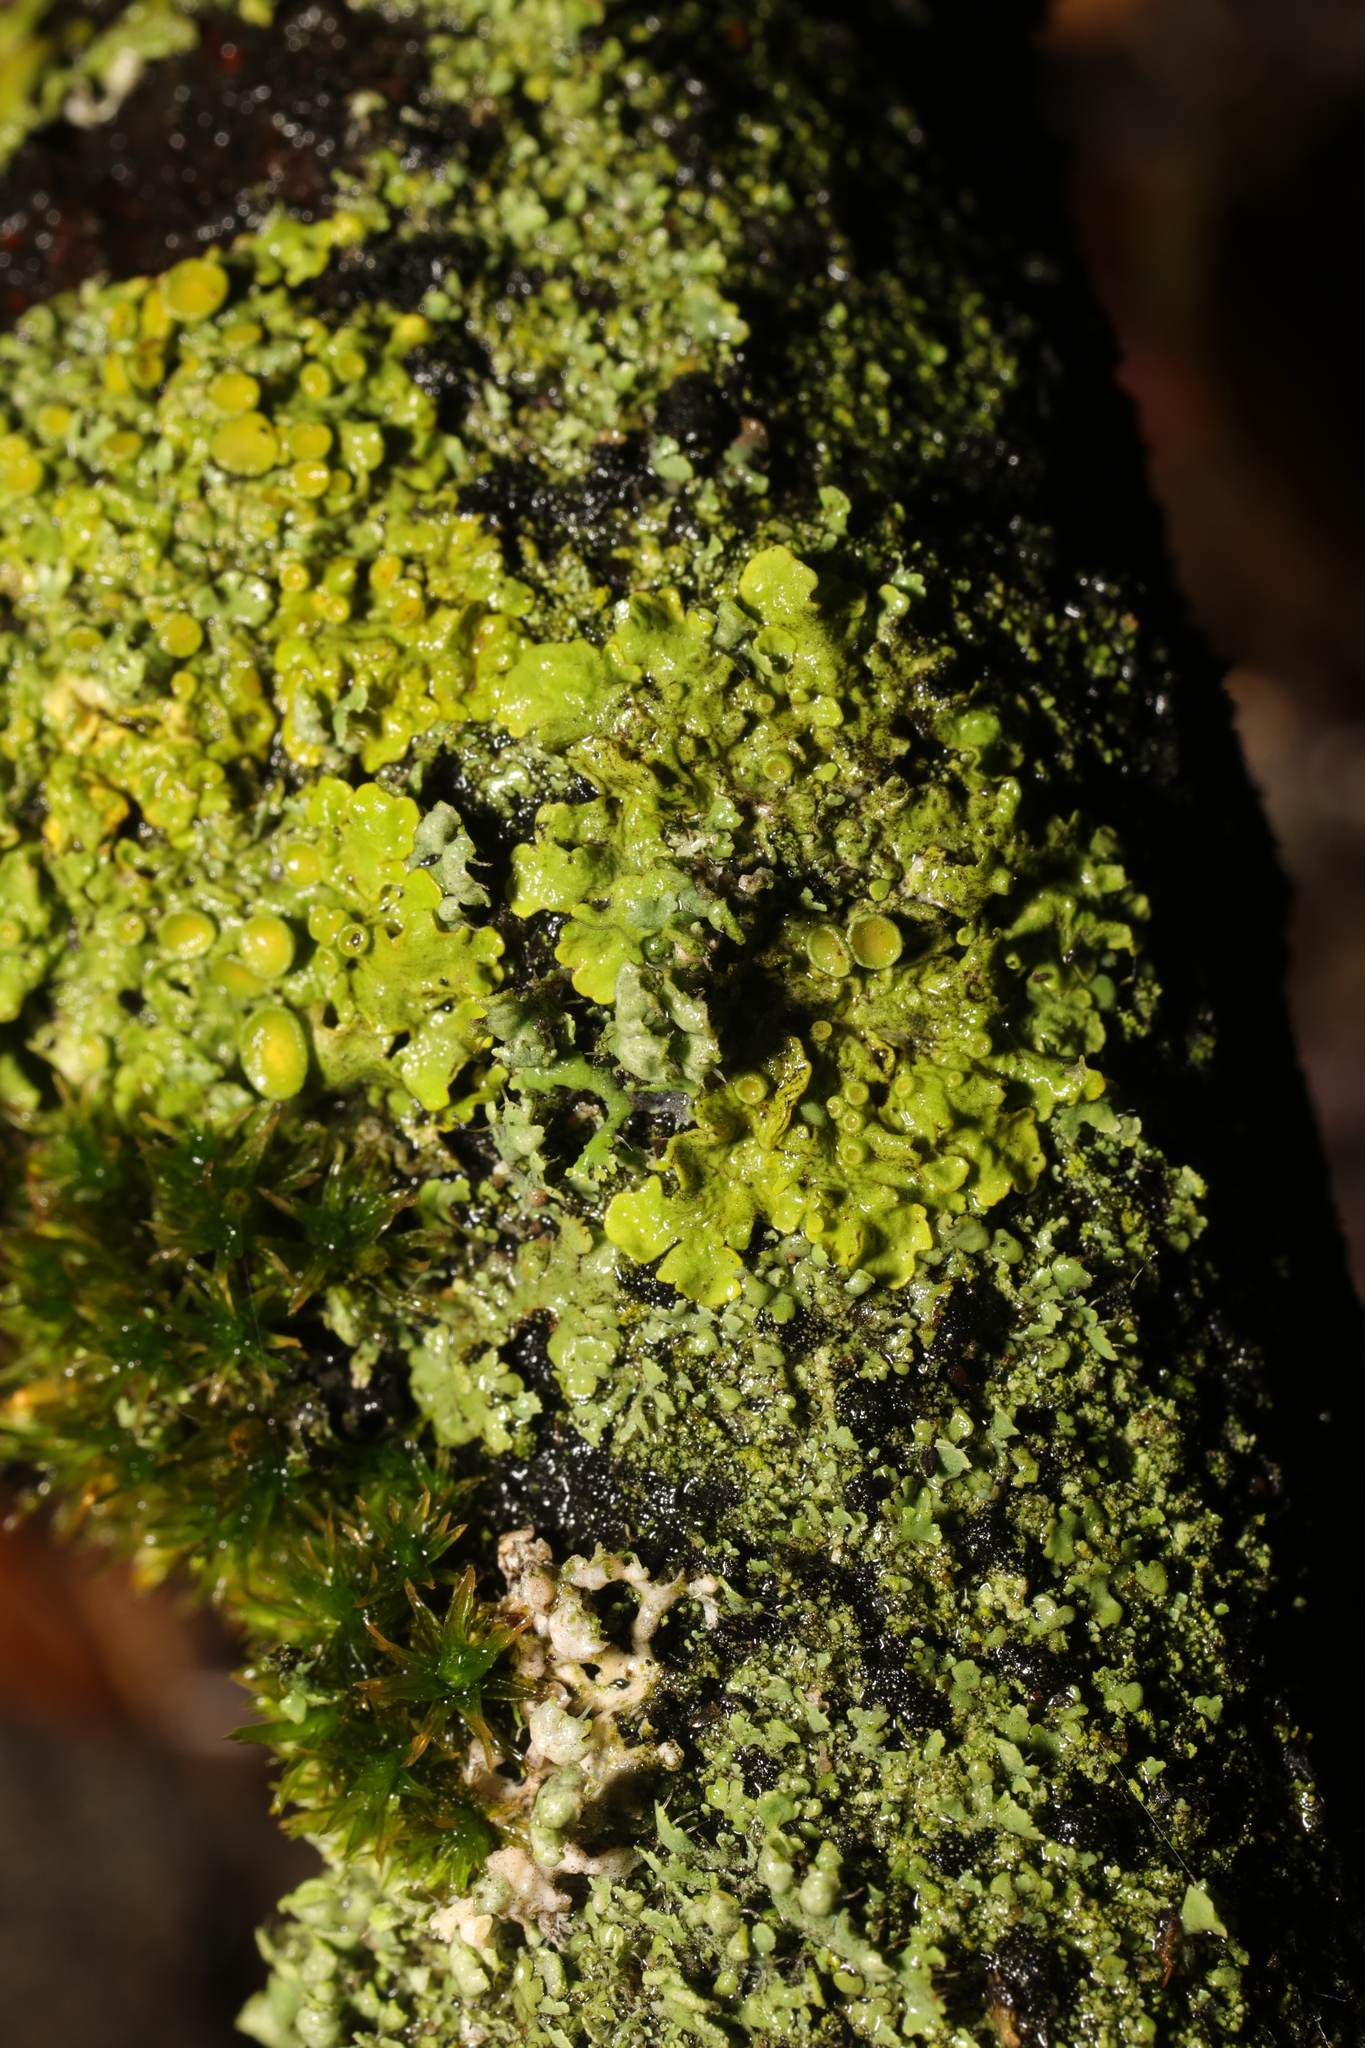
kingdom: Fungi
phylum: Ascomycota
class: Lecanoromycetes
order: Teloschistales
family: Teloschistaceae
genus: Xanthoria
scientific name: Xanthoria parietina
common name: Common orange lichen
